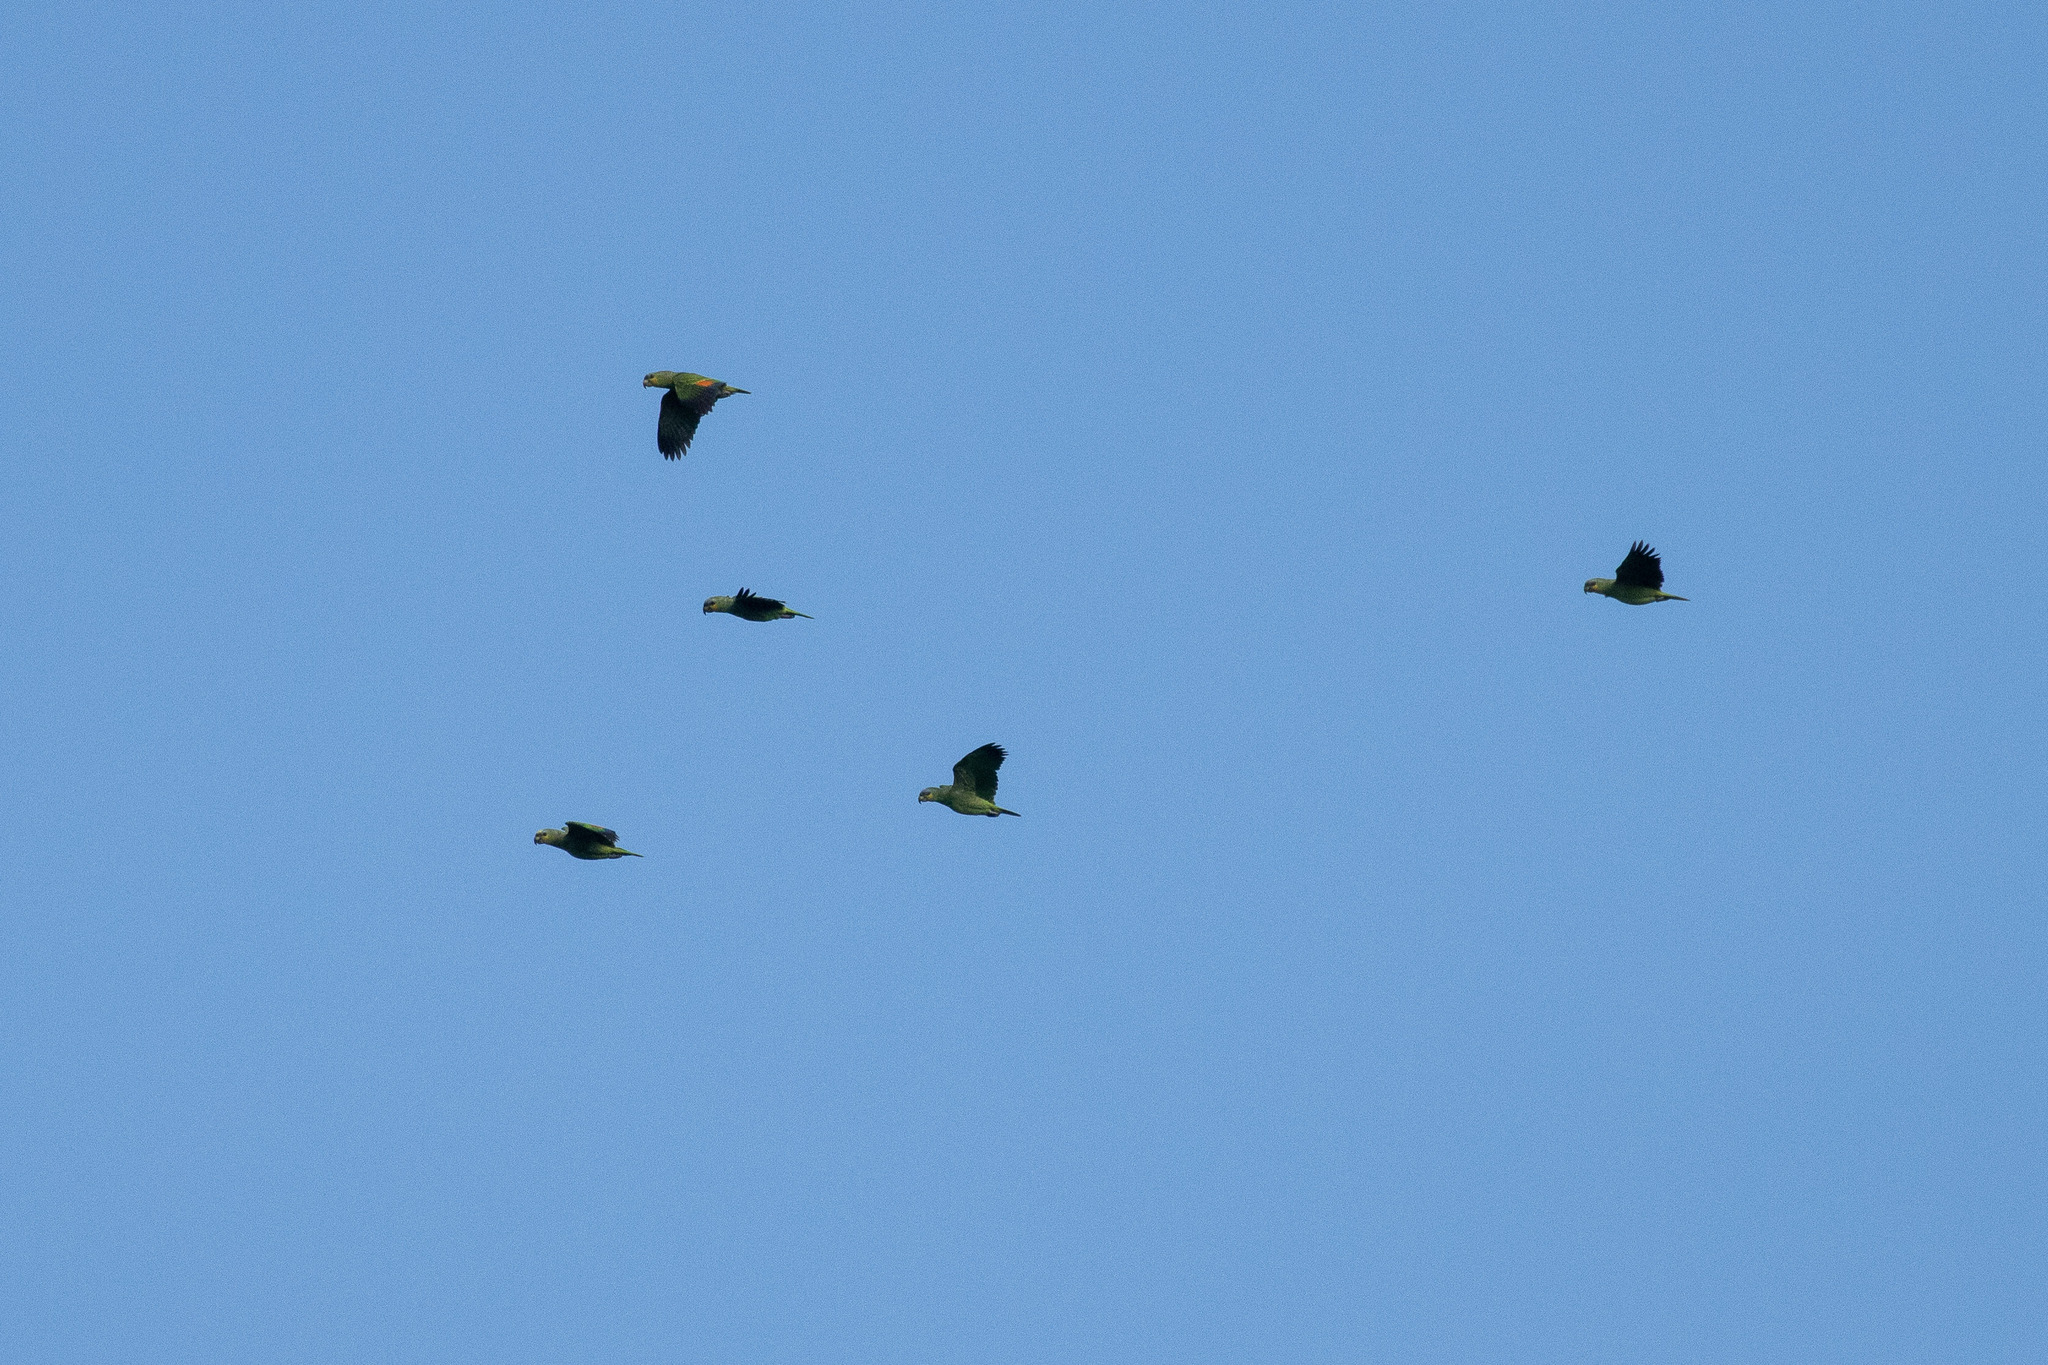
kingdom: Animalia
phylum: Chordata
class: Aves
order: Psittaciformes
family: Psittacidae
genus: Amazona
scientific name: Amazona amazonica
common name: Orange-winged amazon
